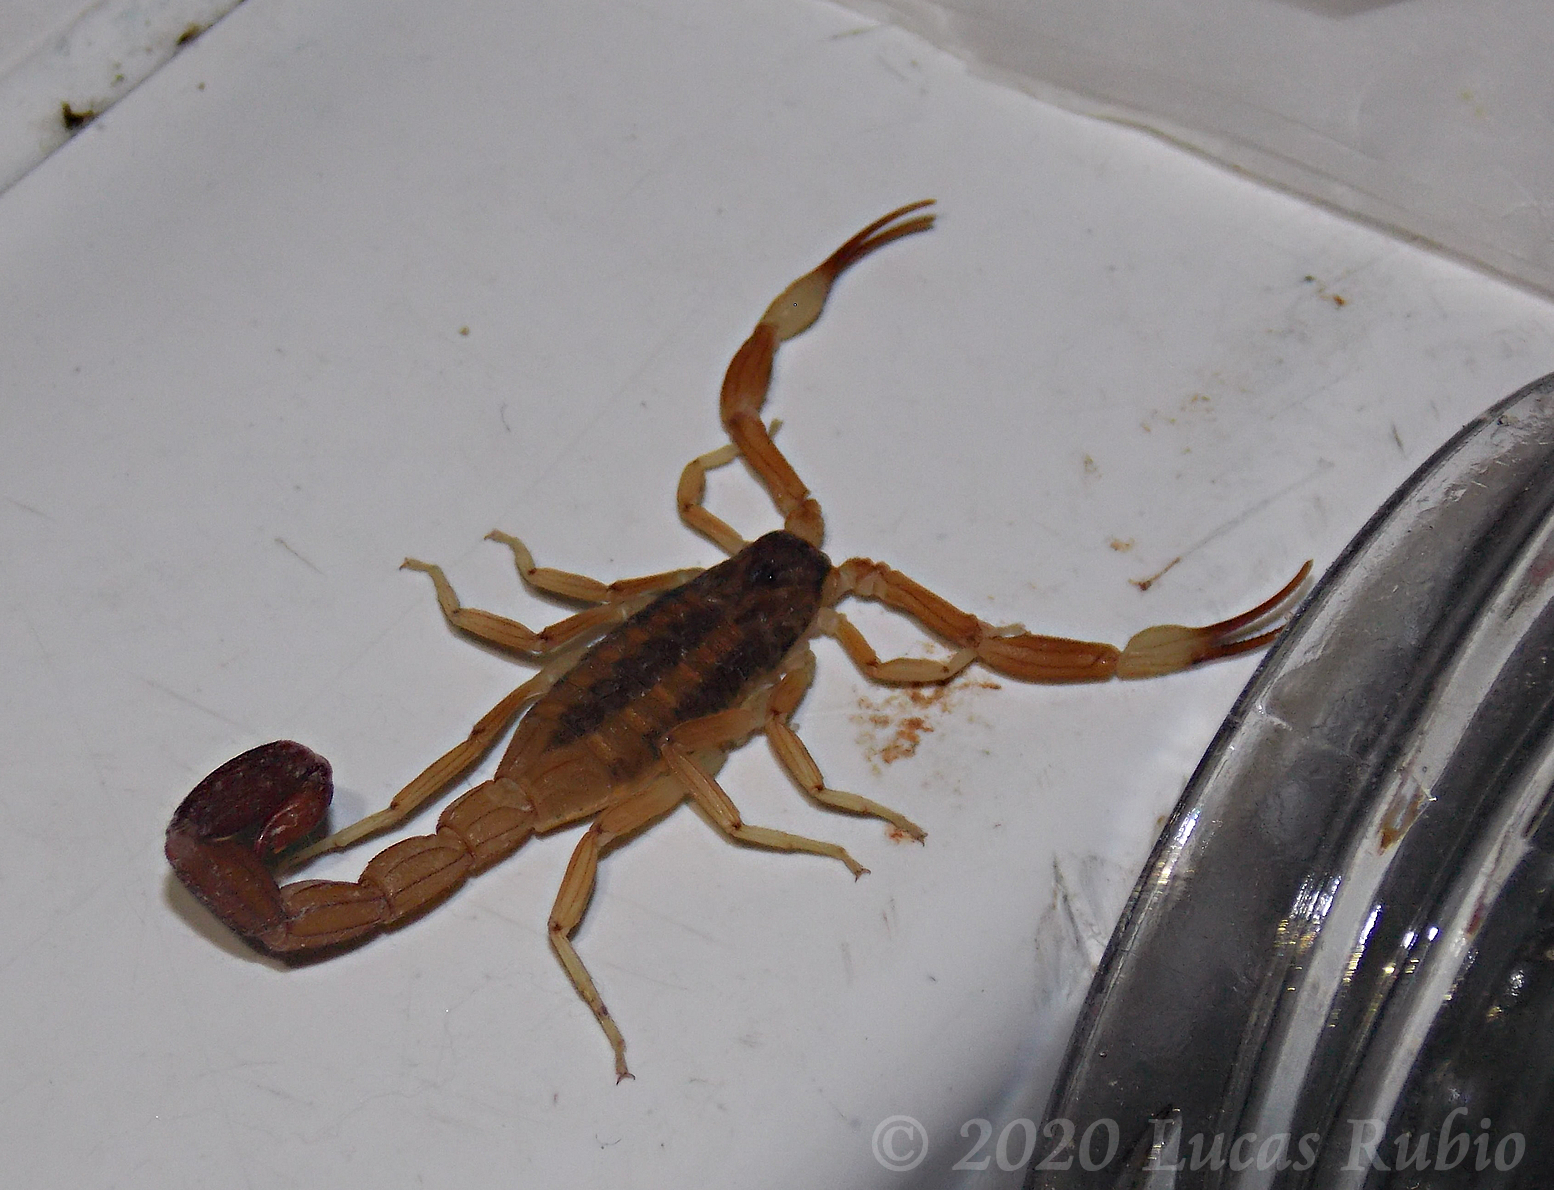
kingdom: Animalia
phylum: Arthropoda
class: Arachnida
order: Scorpiones
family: Buthidae
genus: Tityus
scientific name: Tityus carrilloi
